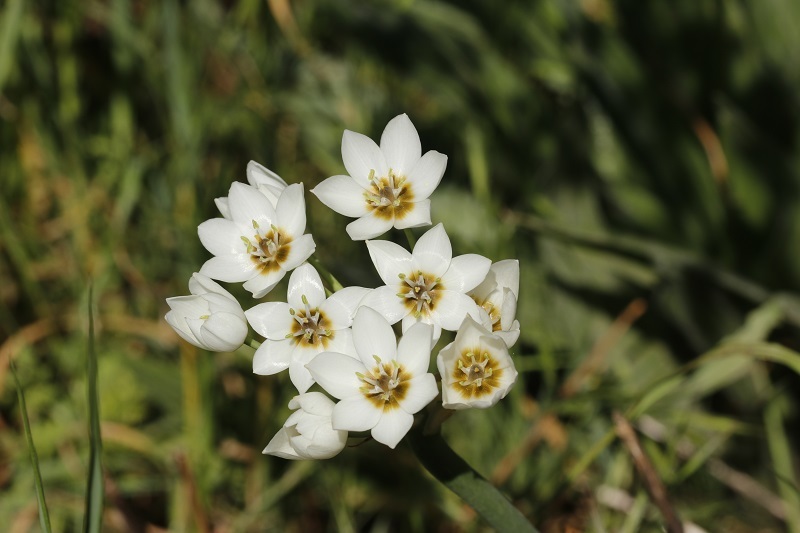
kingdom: Plantae
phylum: Tracheophyta
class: Liliopsida
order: Asparagales
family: Asparagaceae
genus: Ornithogalum
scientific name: Ornithogalum thyrsoides
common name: Chincherinchee
